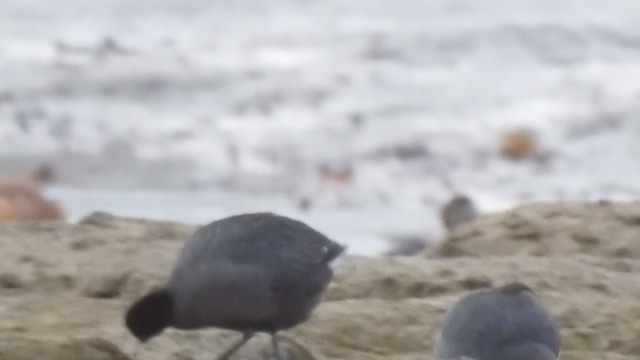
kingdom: Animalia
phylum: Chordata
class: Aves
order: Gruiformes
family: Rallidae
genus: Fulica
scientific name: Fulica americana
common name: American coot
